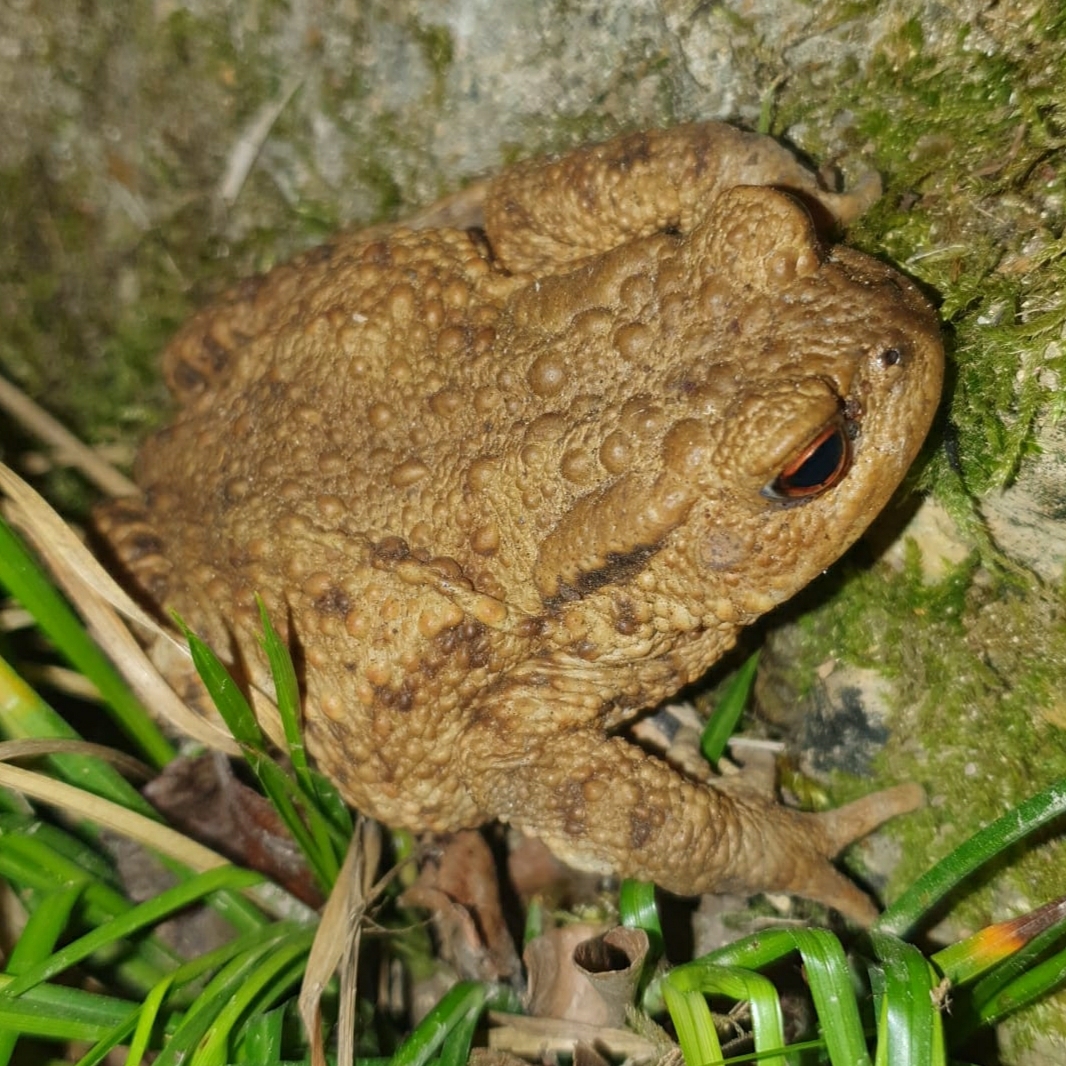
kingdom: Animalia
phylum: Chordata
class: Amphibia
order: Anura
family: Bufonidae
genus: Bufo
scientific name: Bufo bufo
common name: Common toad
